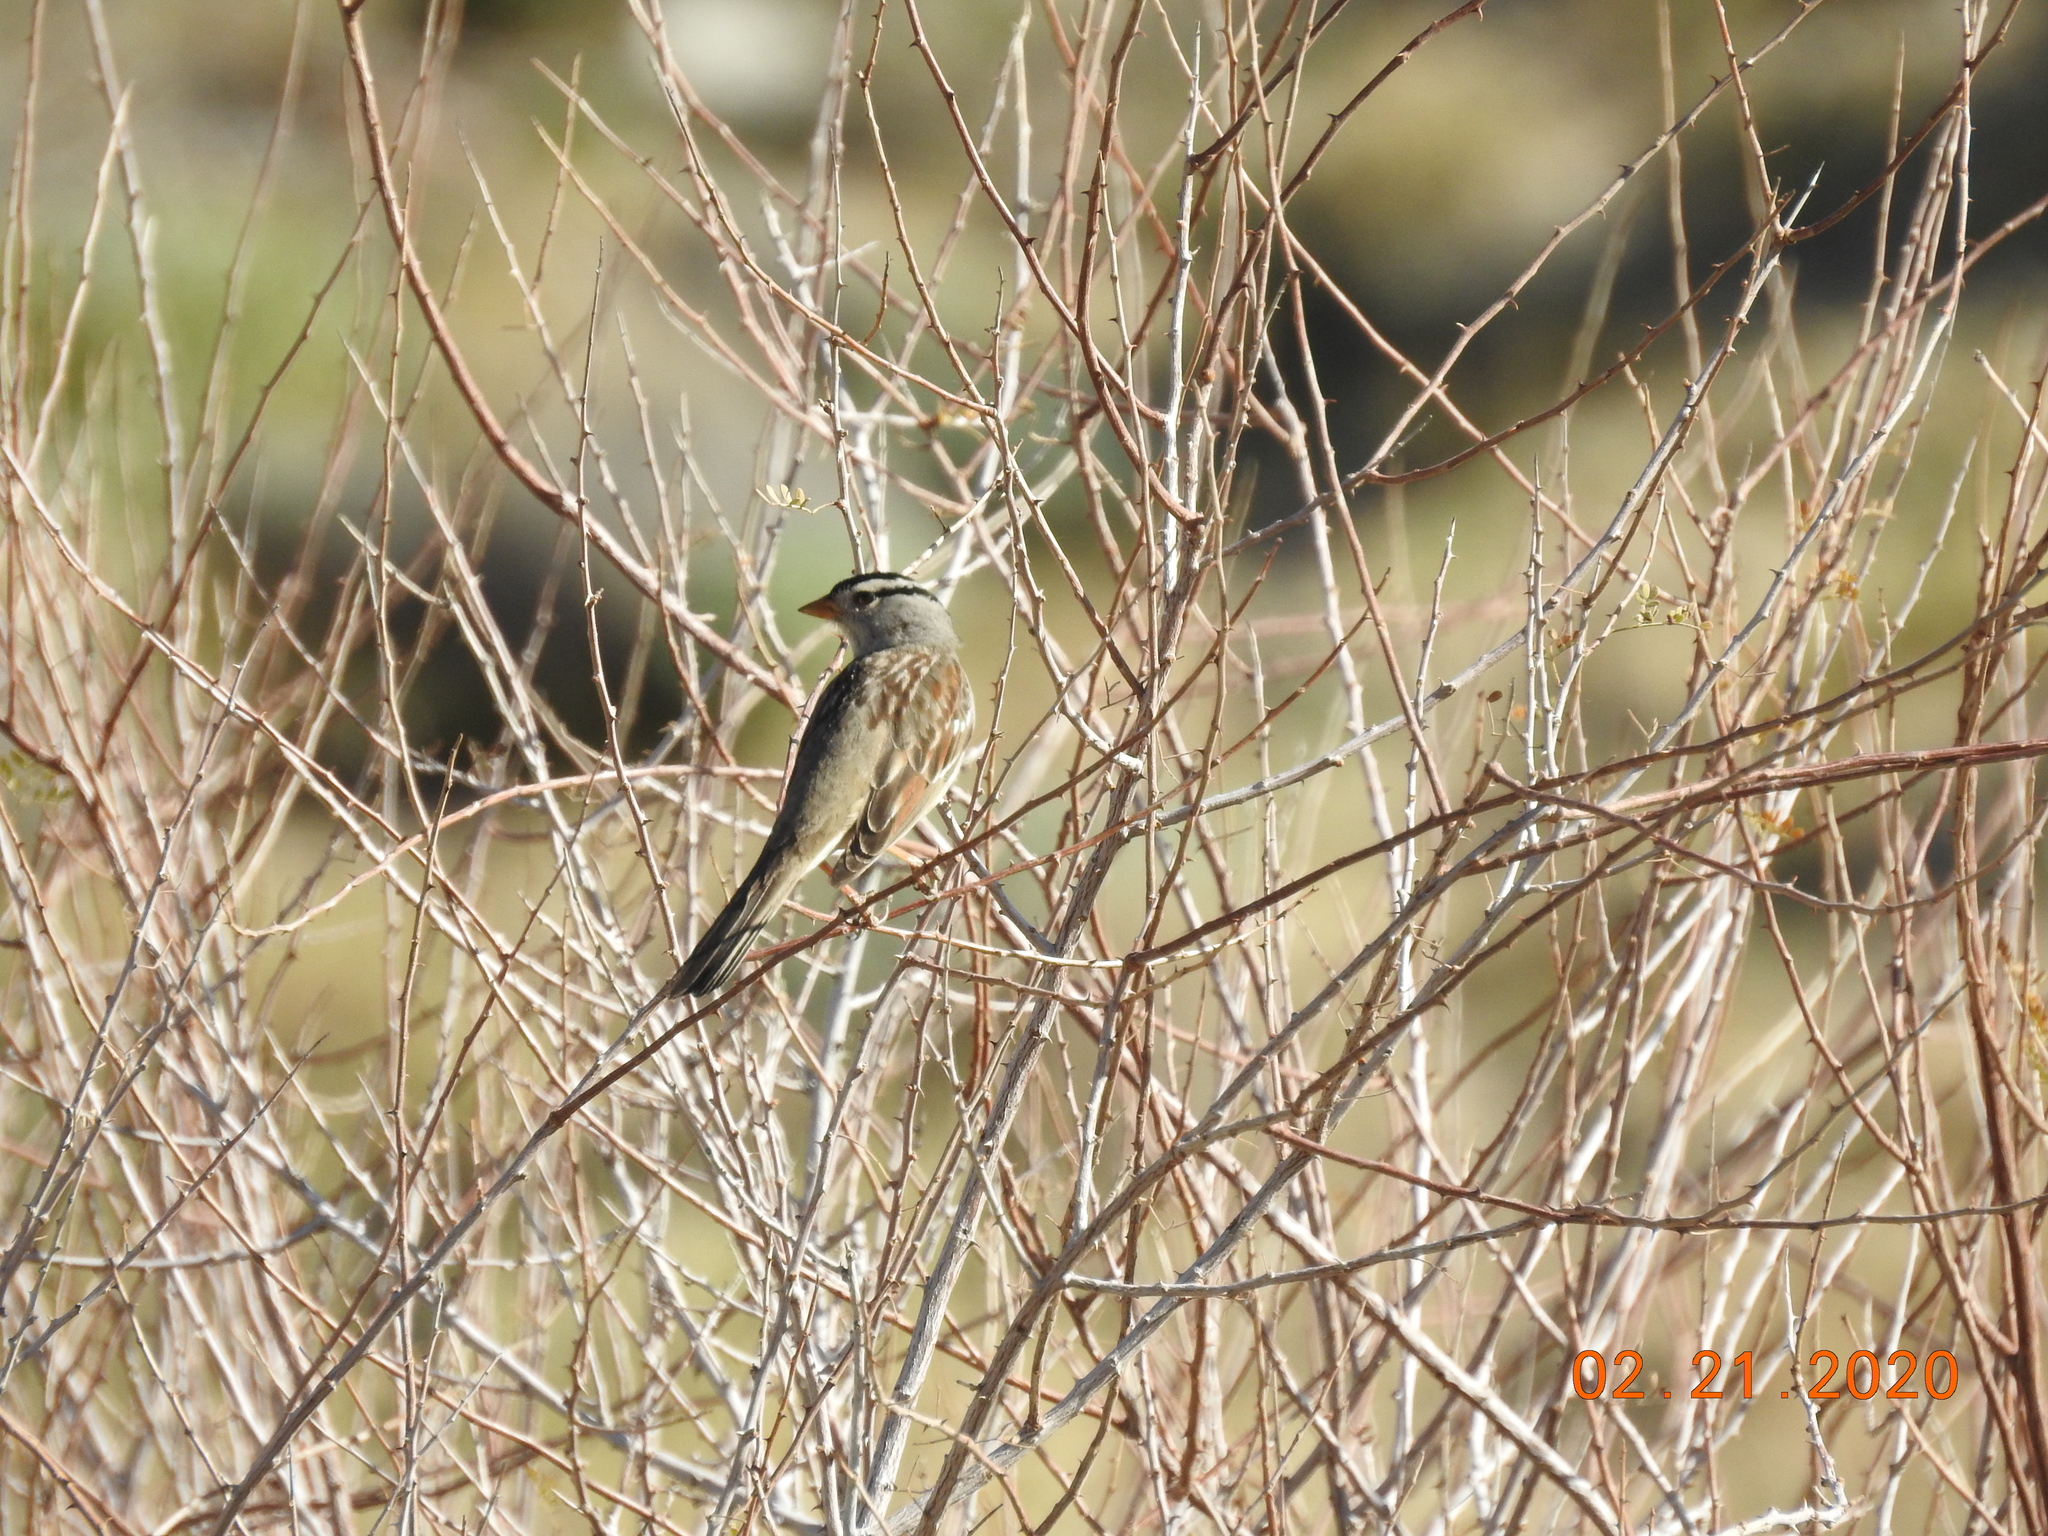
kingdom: Animalia
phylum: Chordata
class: Aves
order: Passeriformes
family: Passerellidae
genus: Zonotrichia
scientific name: Zonotrichia leucophrys
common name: White-crowned sparrow
